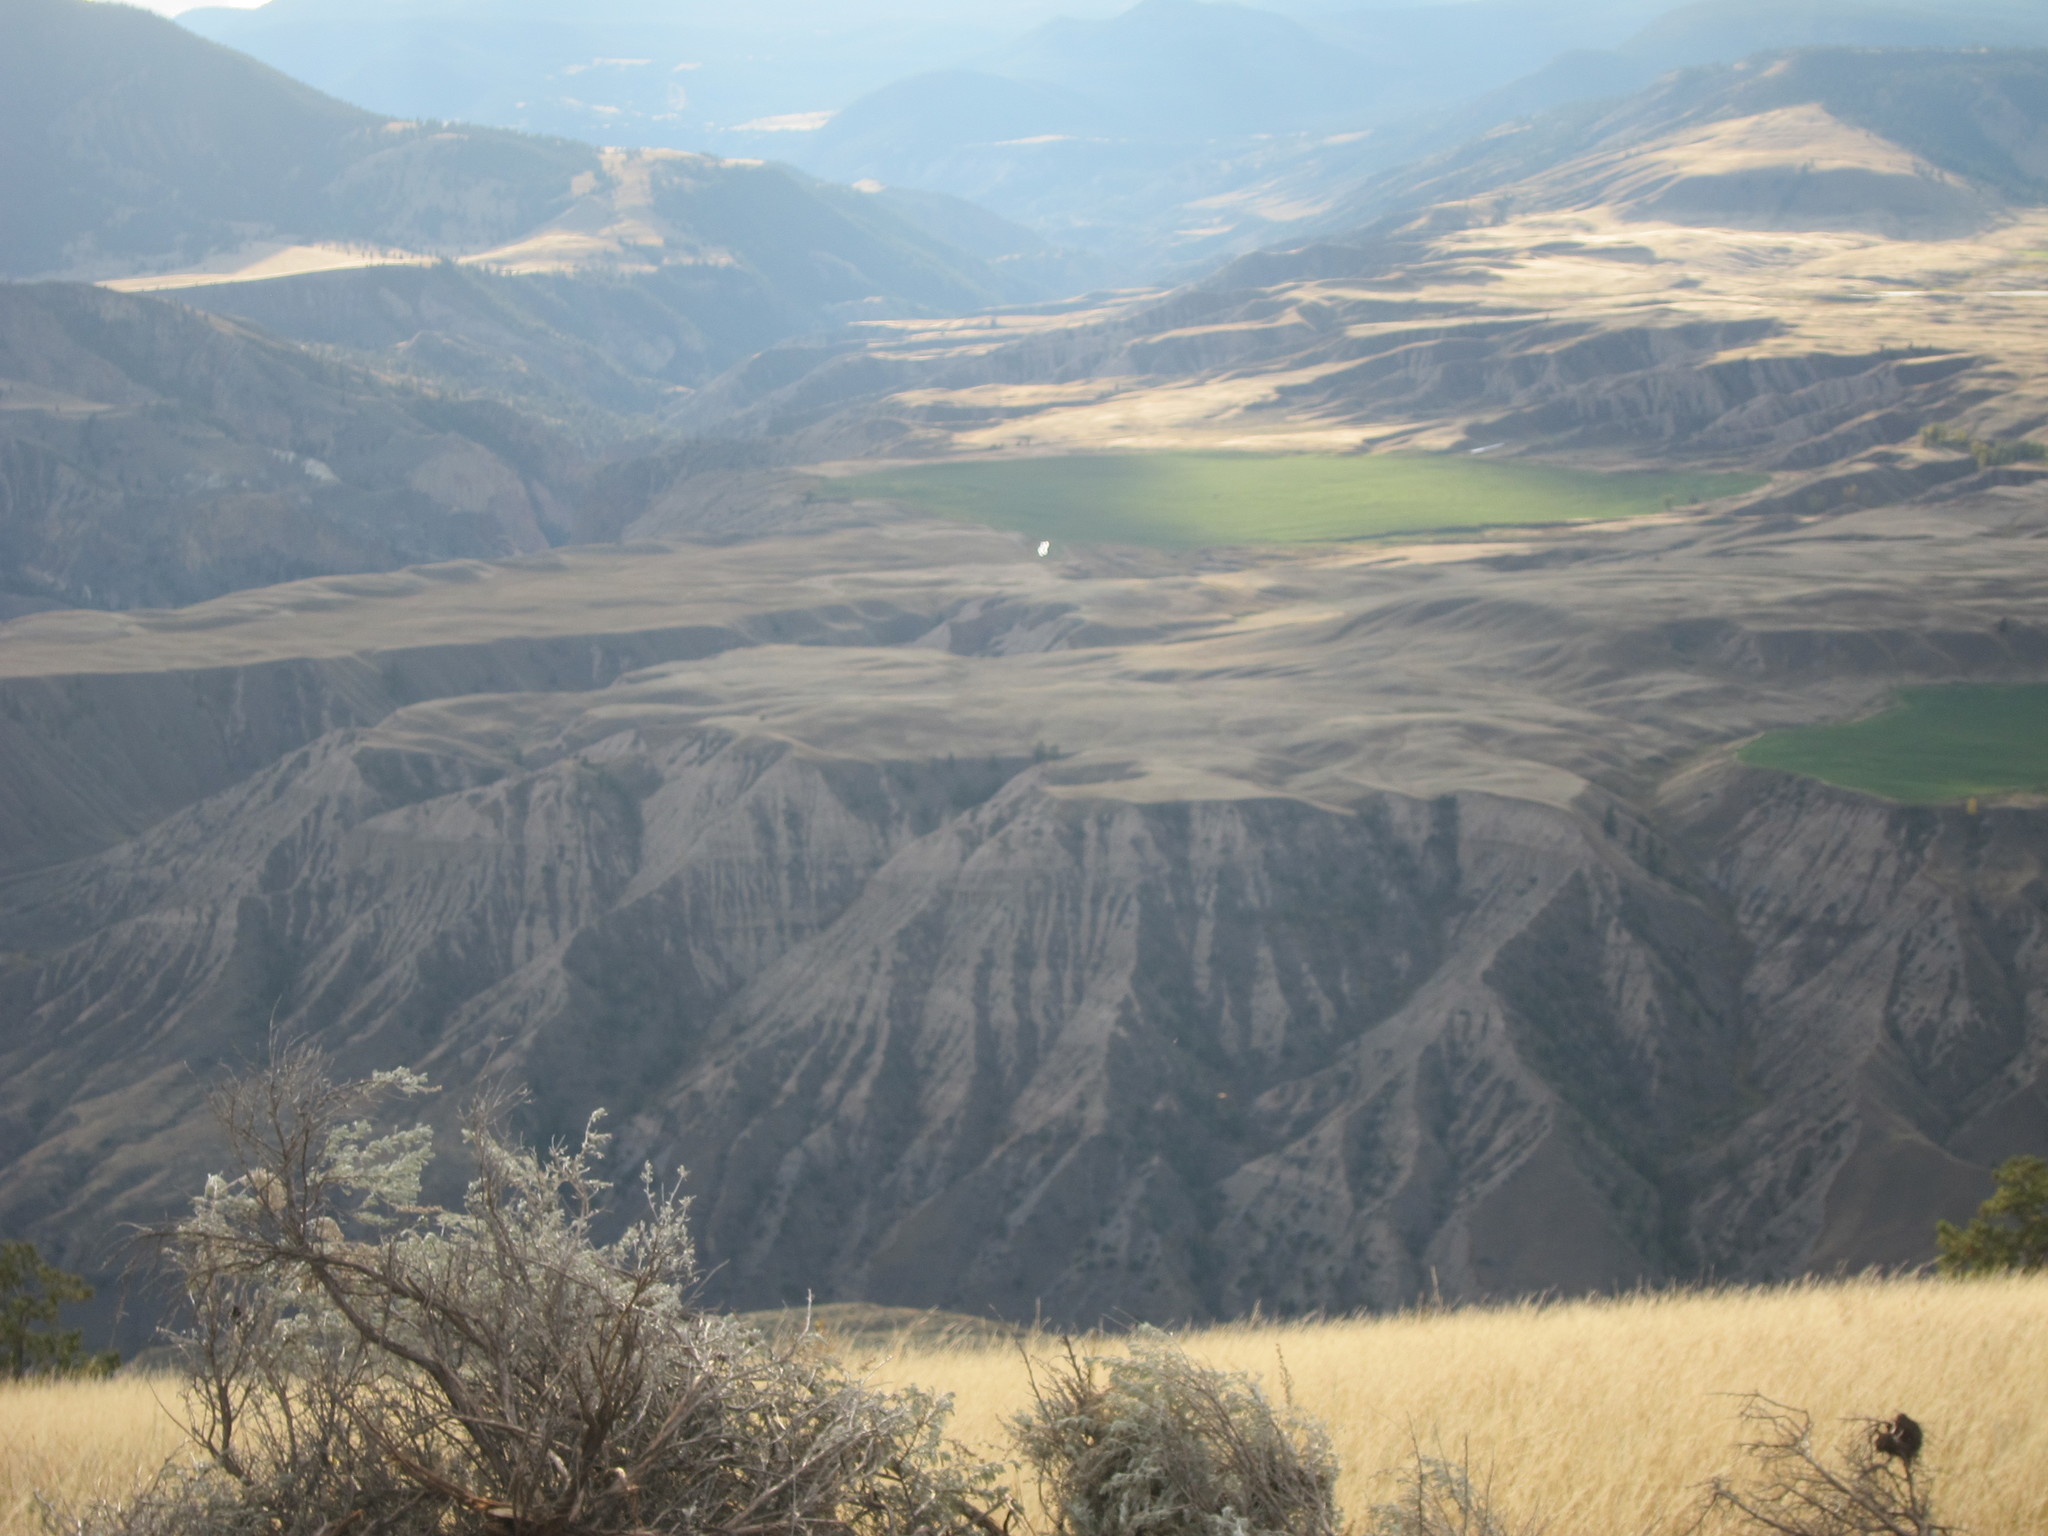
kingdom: Plantae
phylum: Tracheophyta
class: Magnoliopsida
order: Asterales
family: Asteraceae
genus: Artemisia
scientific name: Artemisia tridentata
